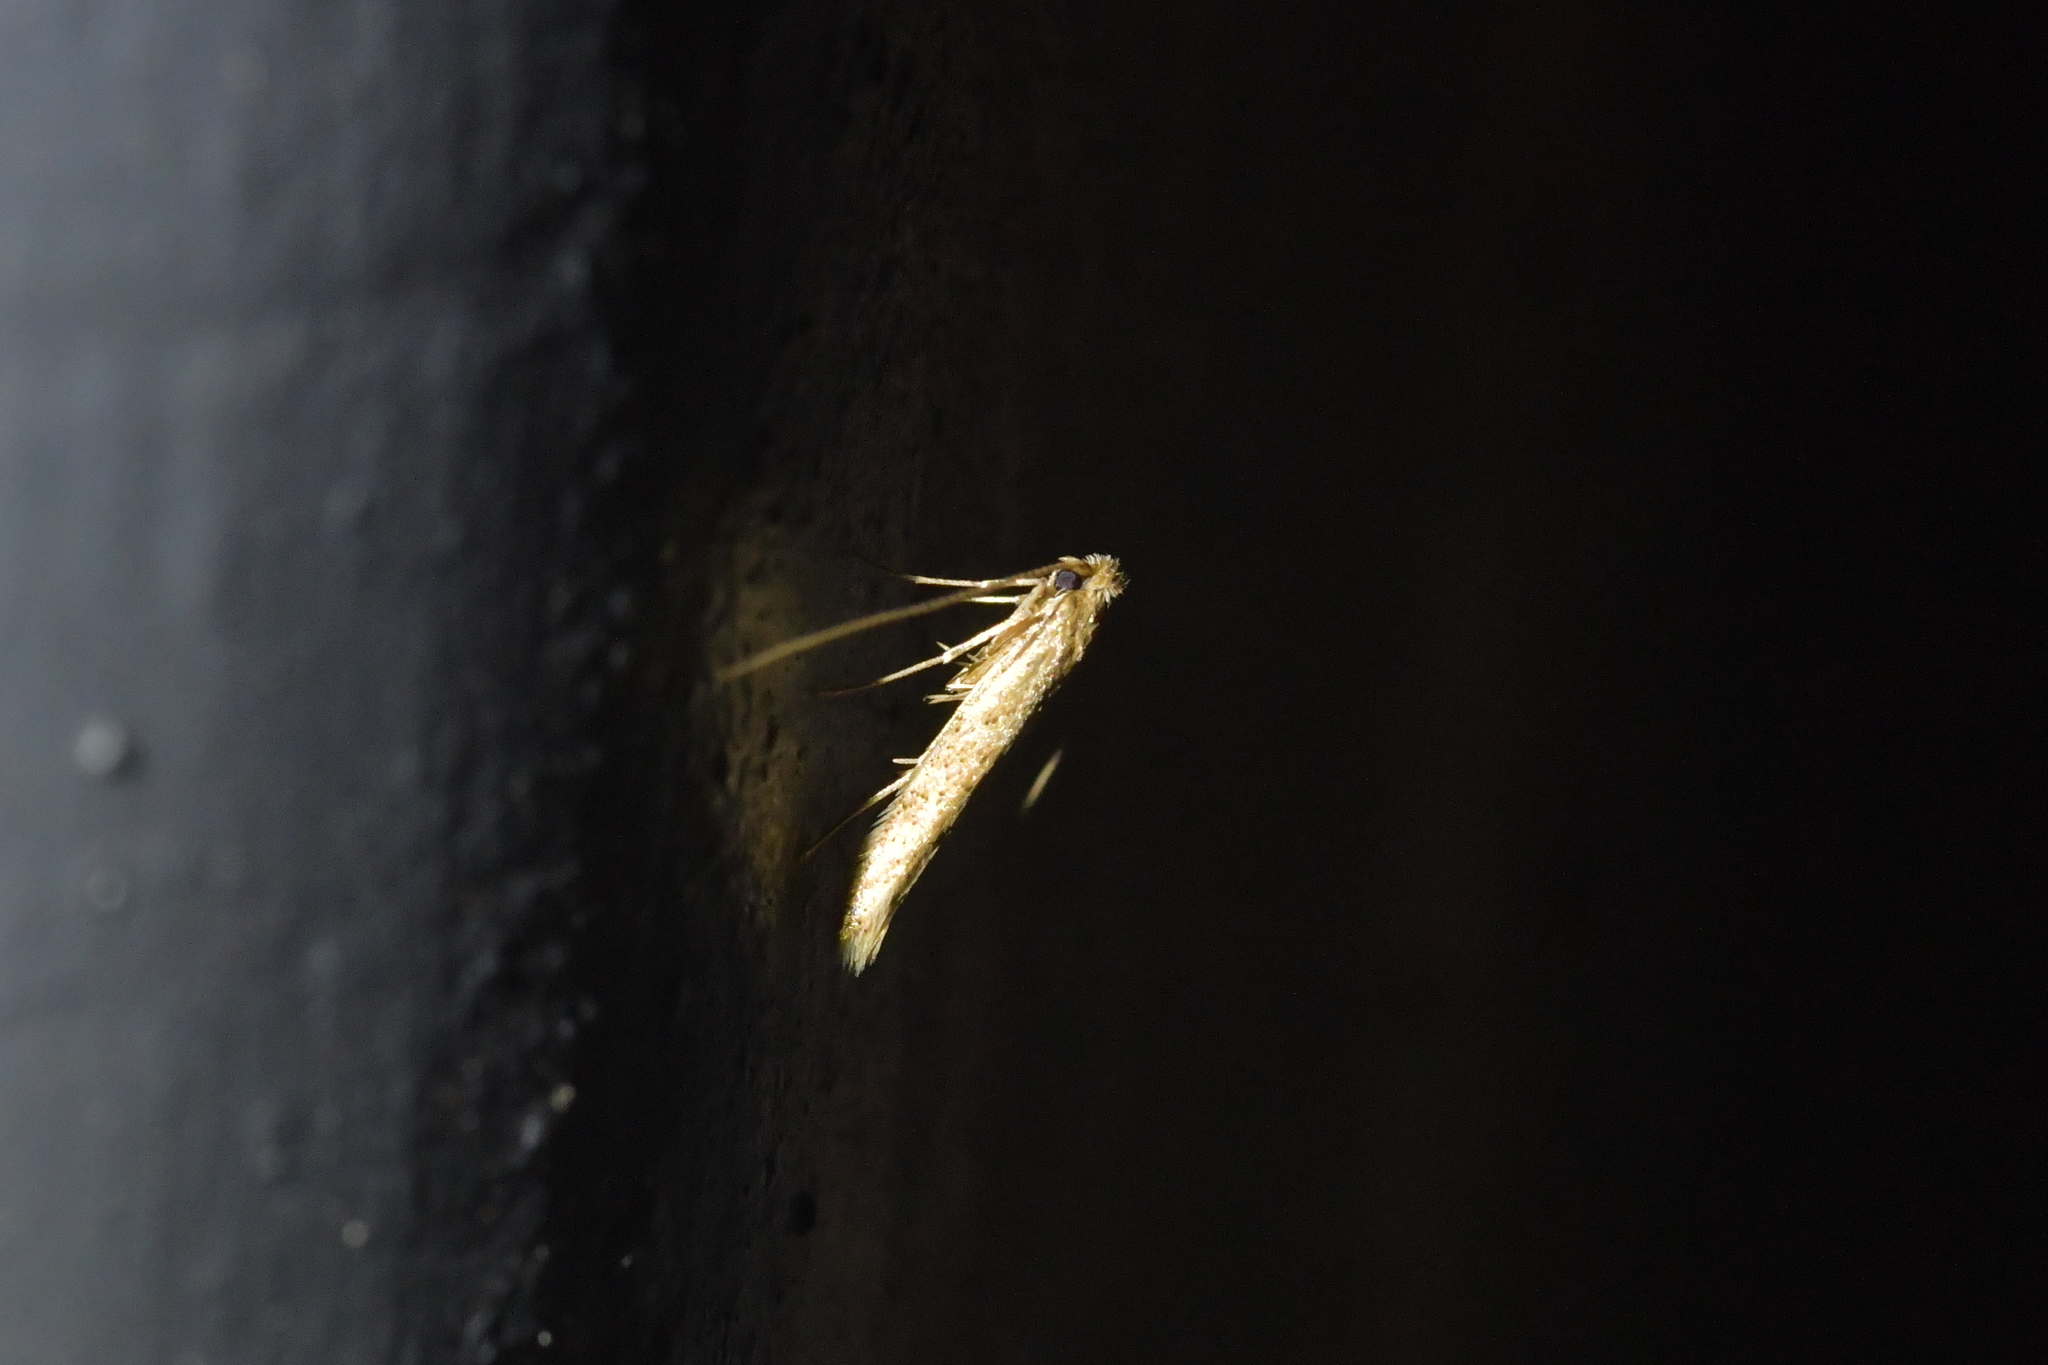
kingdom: Animalia
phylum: Arthropoda
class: Insecta
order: Lepidoptera
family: Bedelliidae
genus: Bedellia
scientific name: Bedellia somnulentella
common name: Morning-glory leafminer moth
